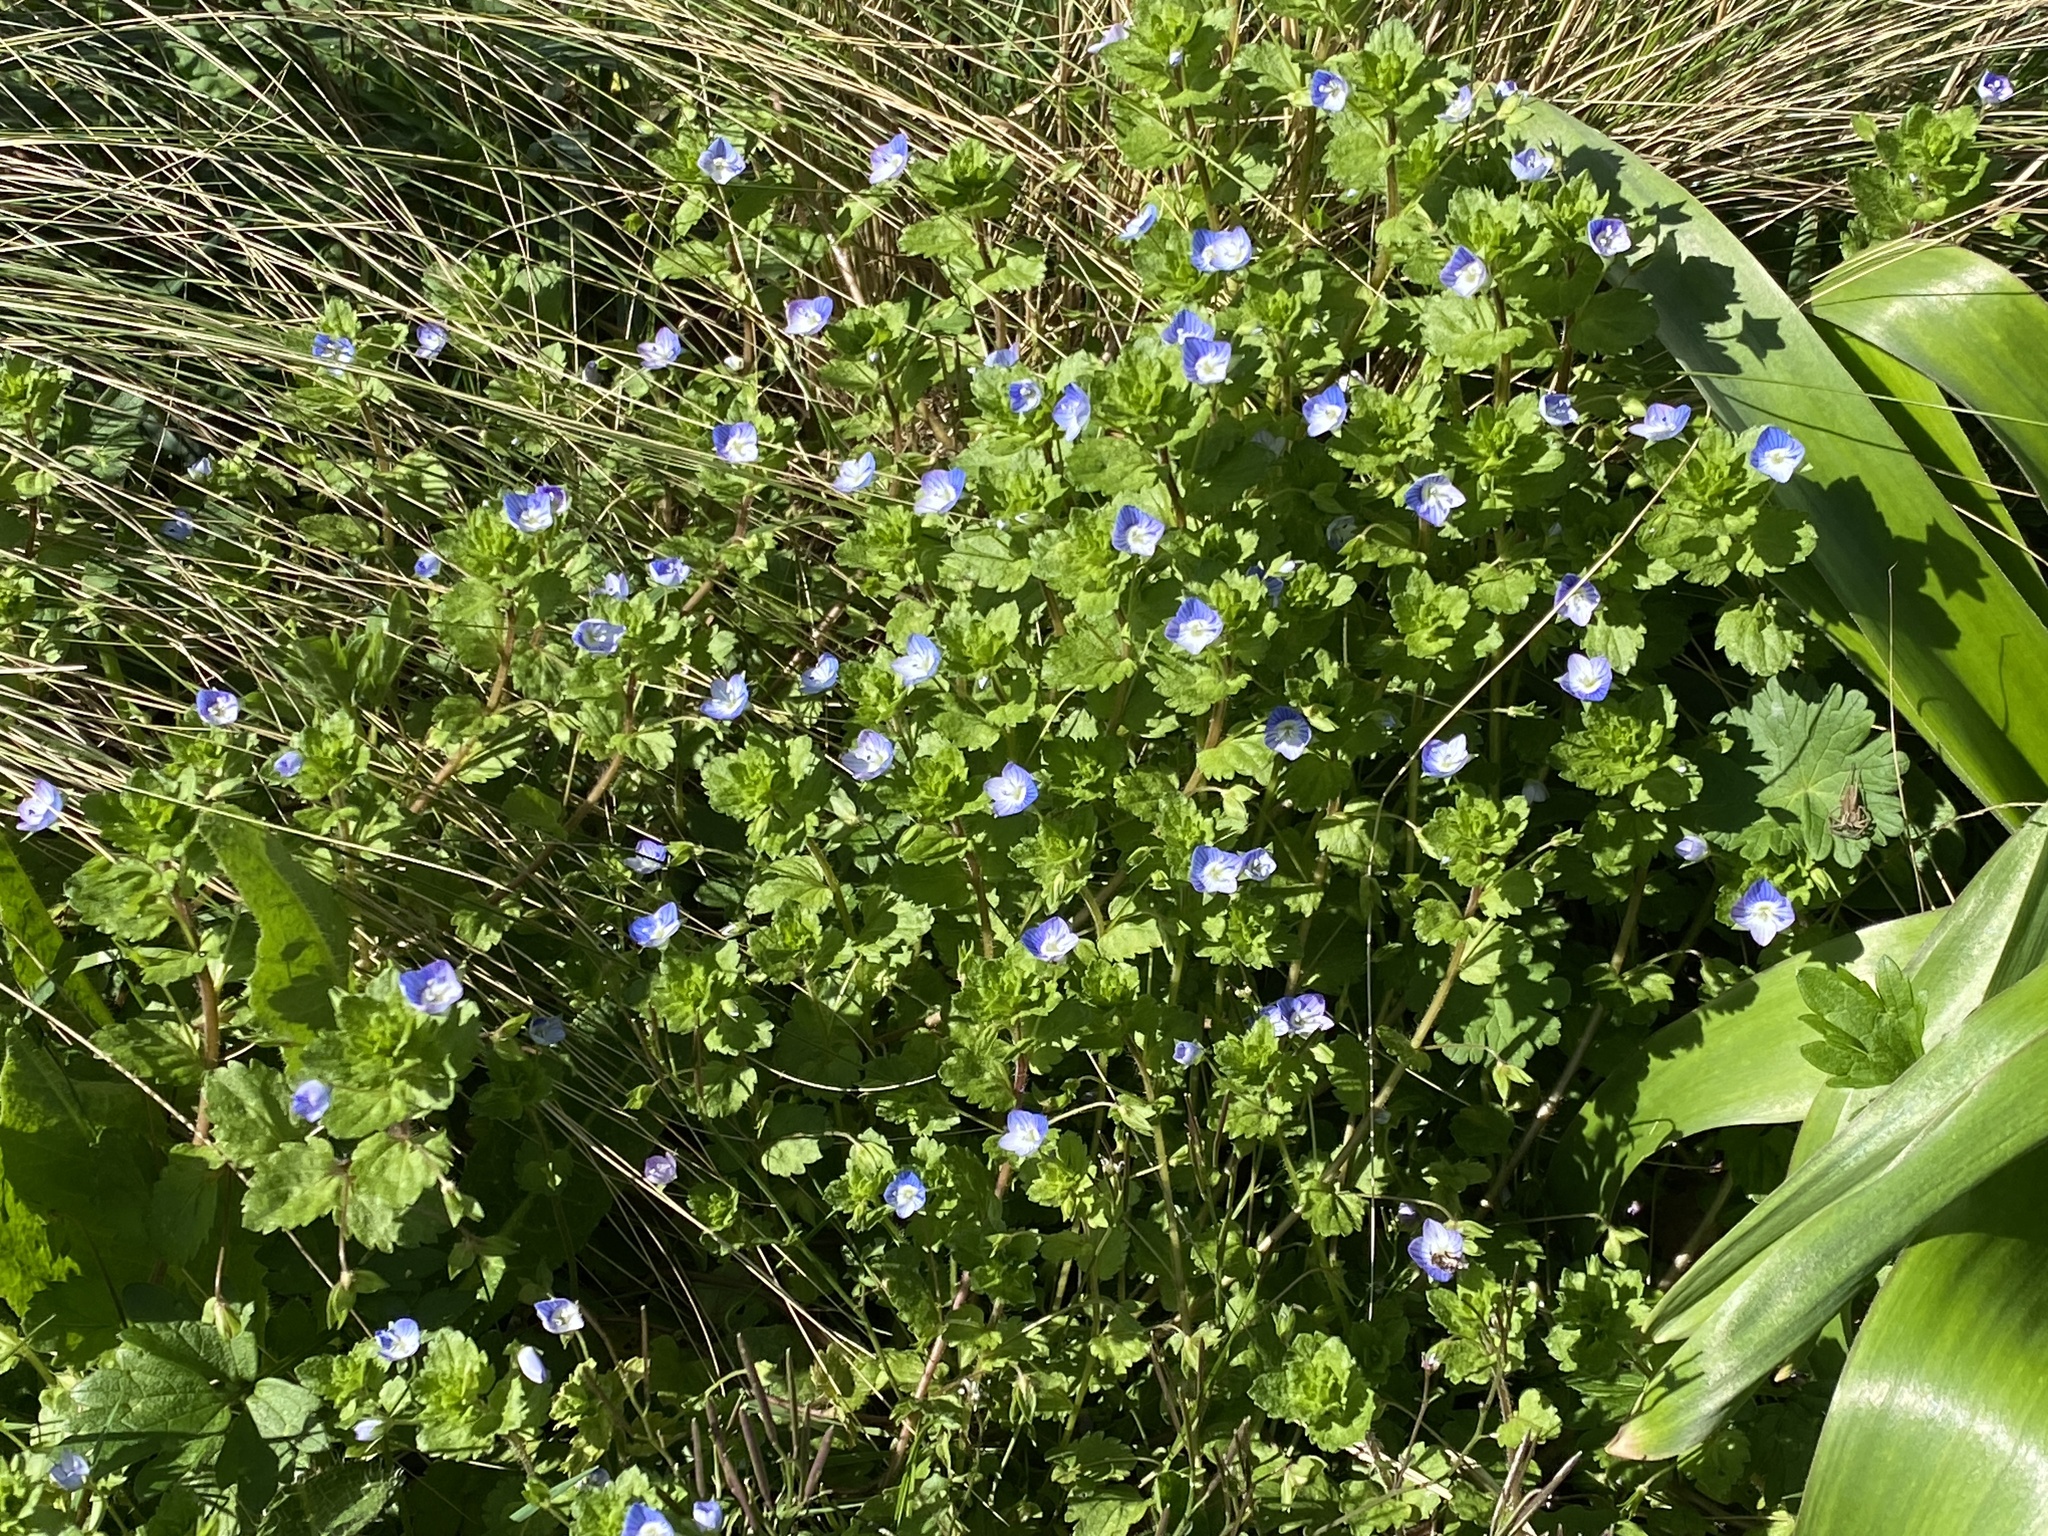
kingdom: Plantae
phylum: Tracheophyta
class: Magnoliopsida
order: Lamiales
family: Plantaginaceae
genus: Veronica
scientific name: Veronica persica
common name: Common field-speedwell
